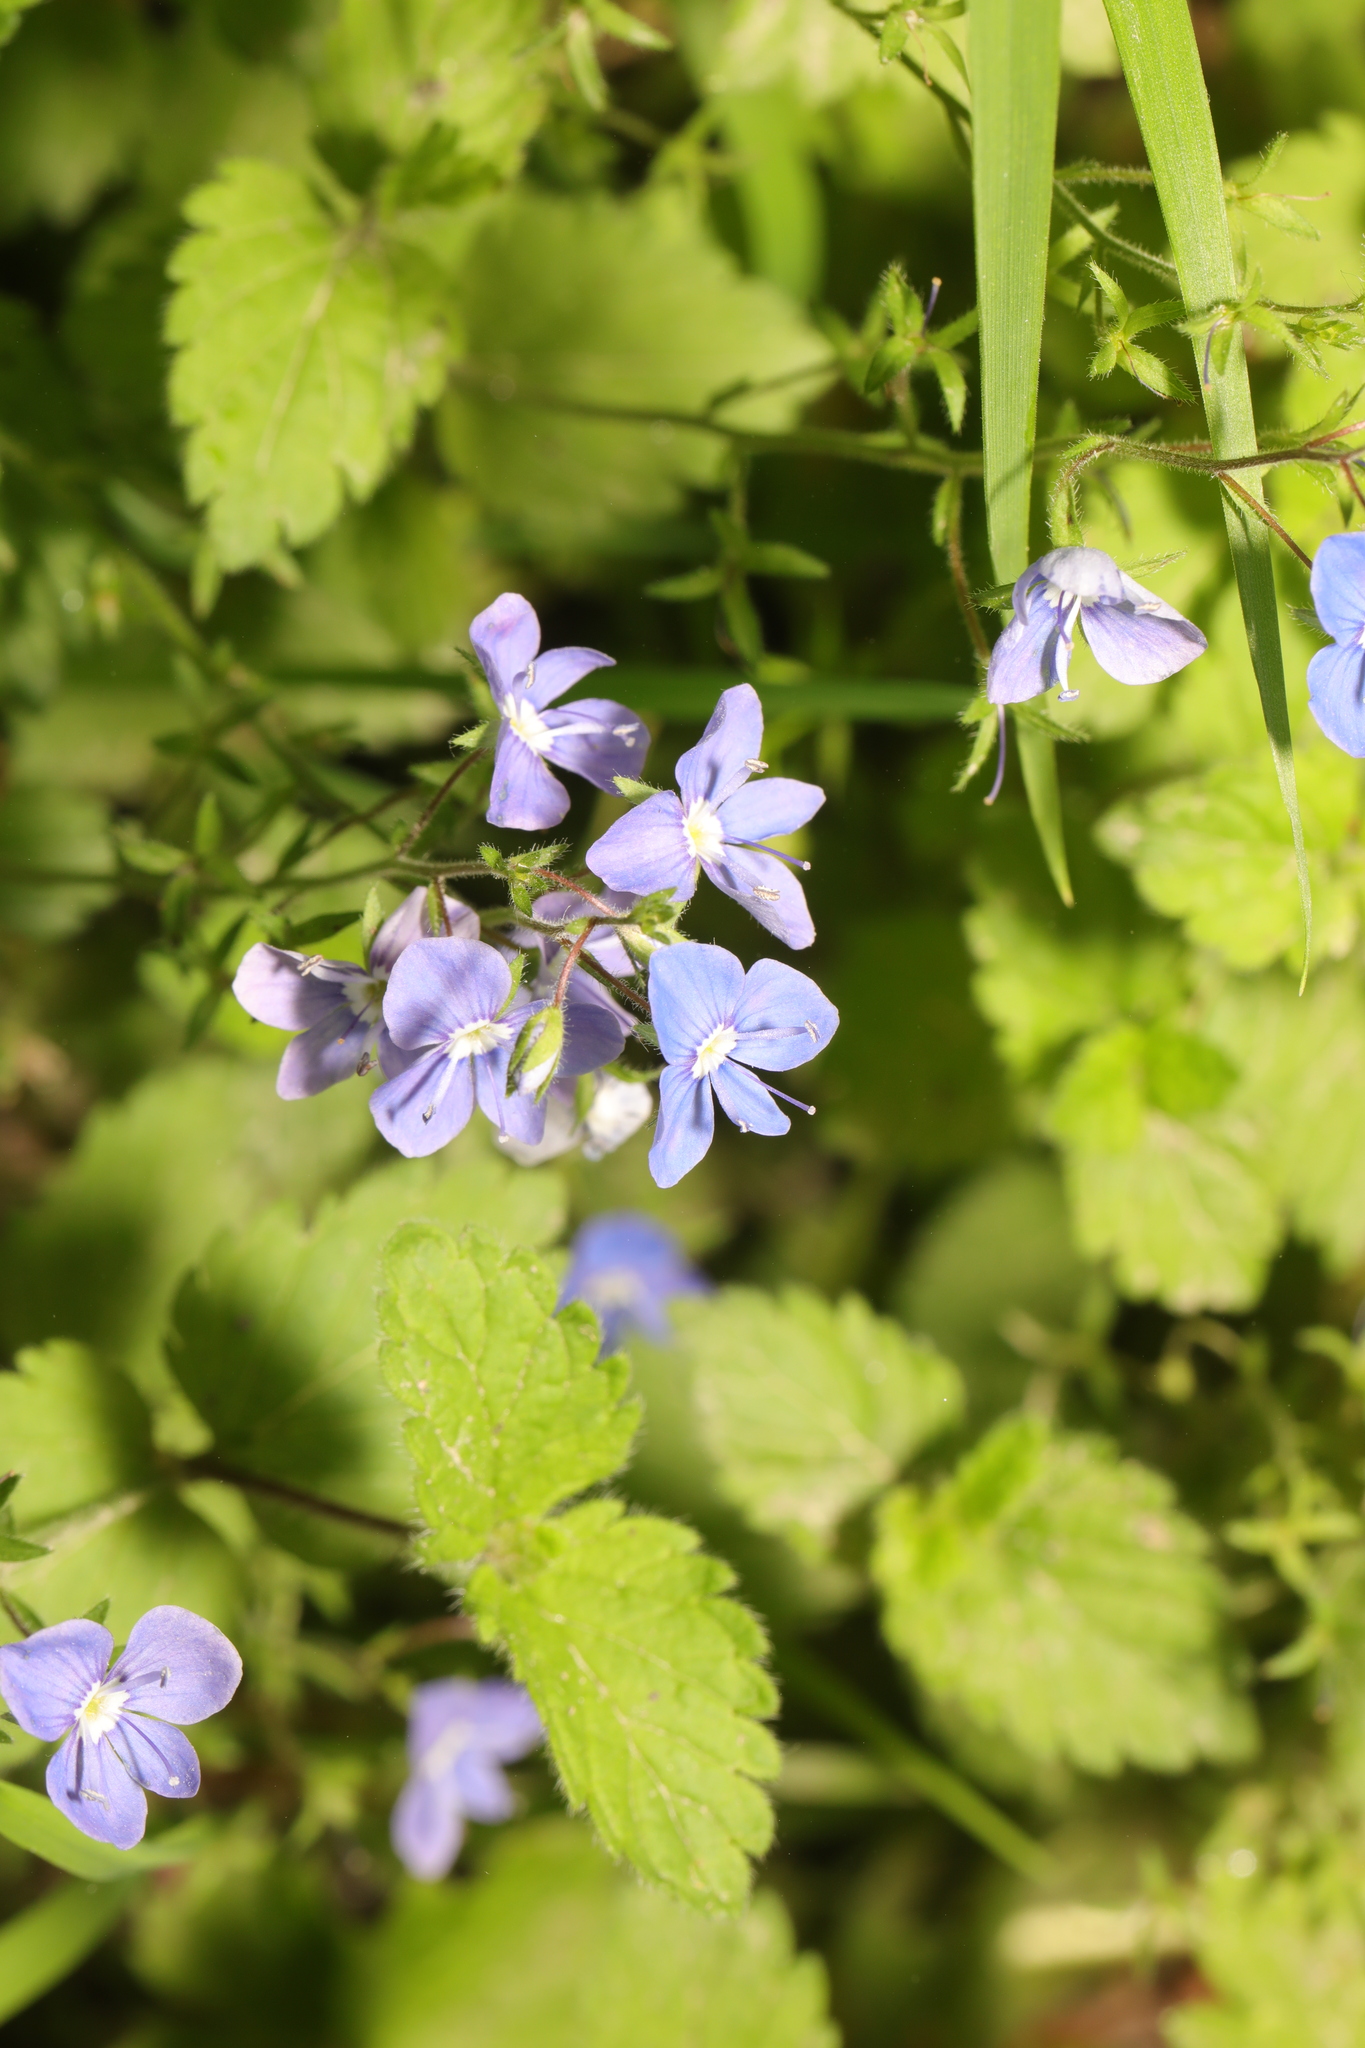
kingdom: Plantae
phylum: Tracheophyta
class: Magnoliopsida
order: Lamiales
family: Plantaginaceae
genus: Veronica
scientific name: Veronica chamaedrys
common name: Germander speedwell
